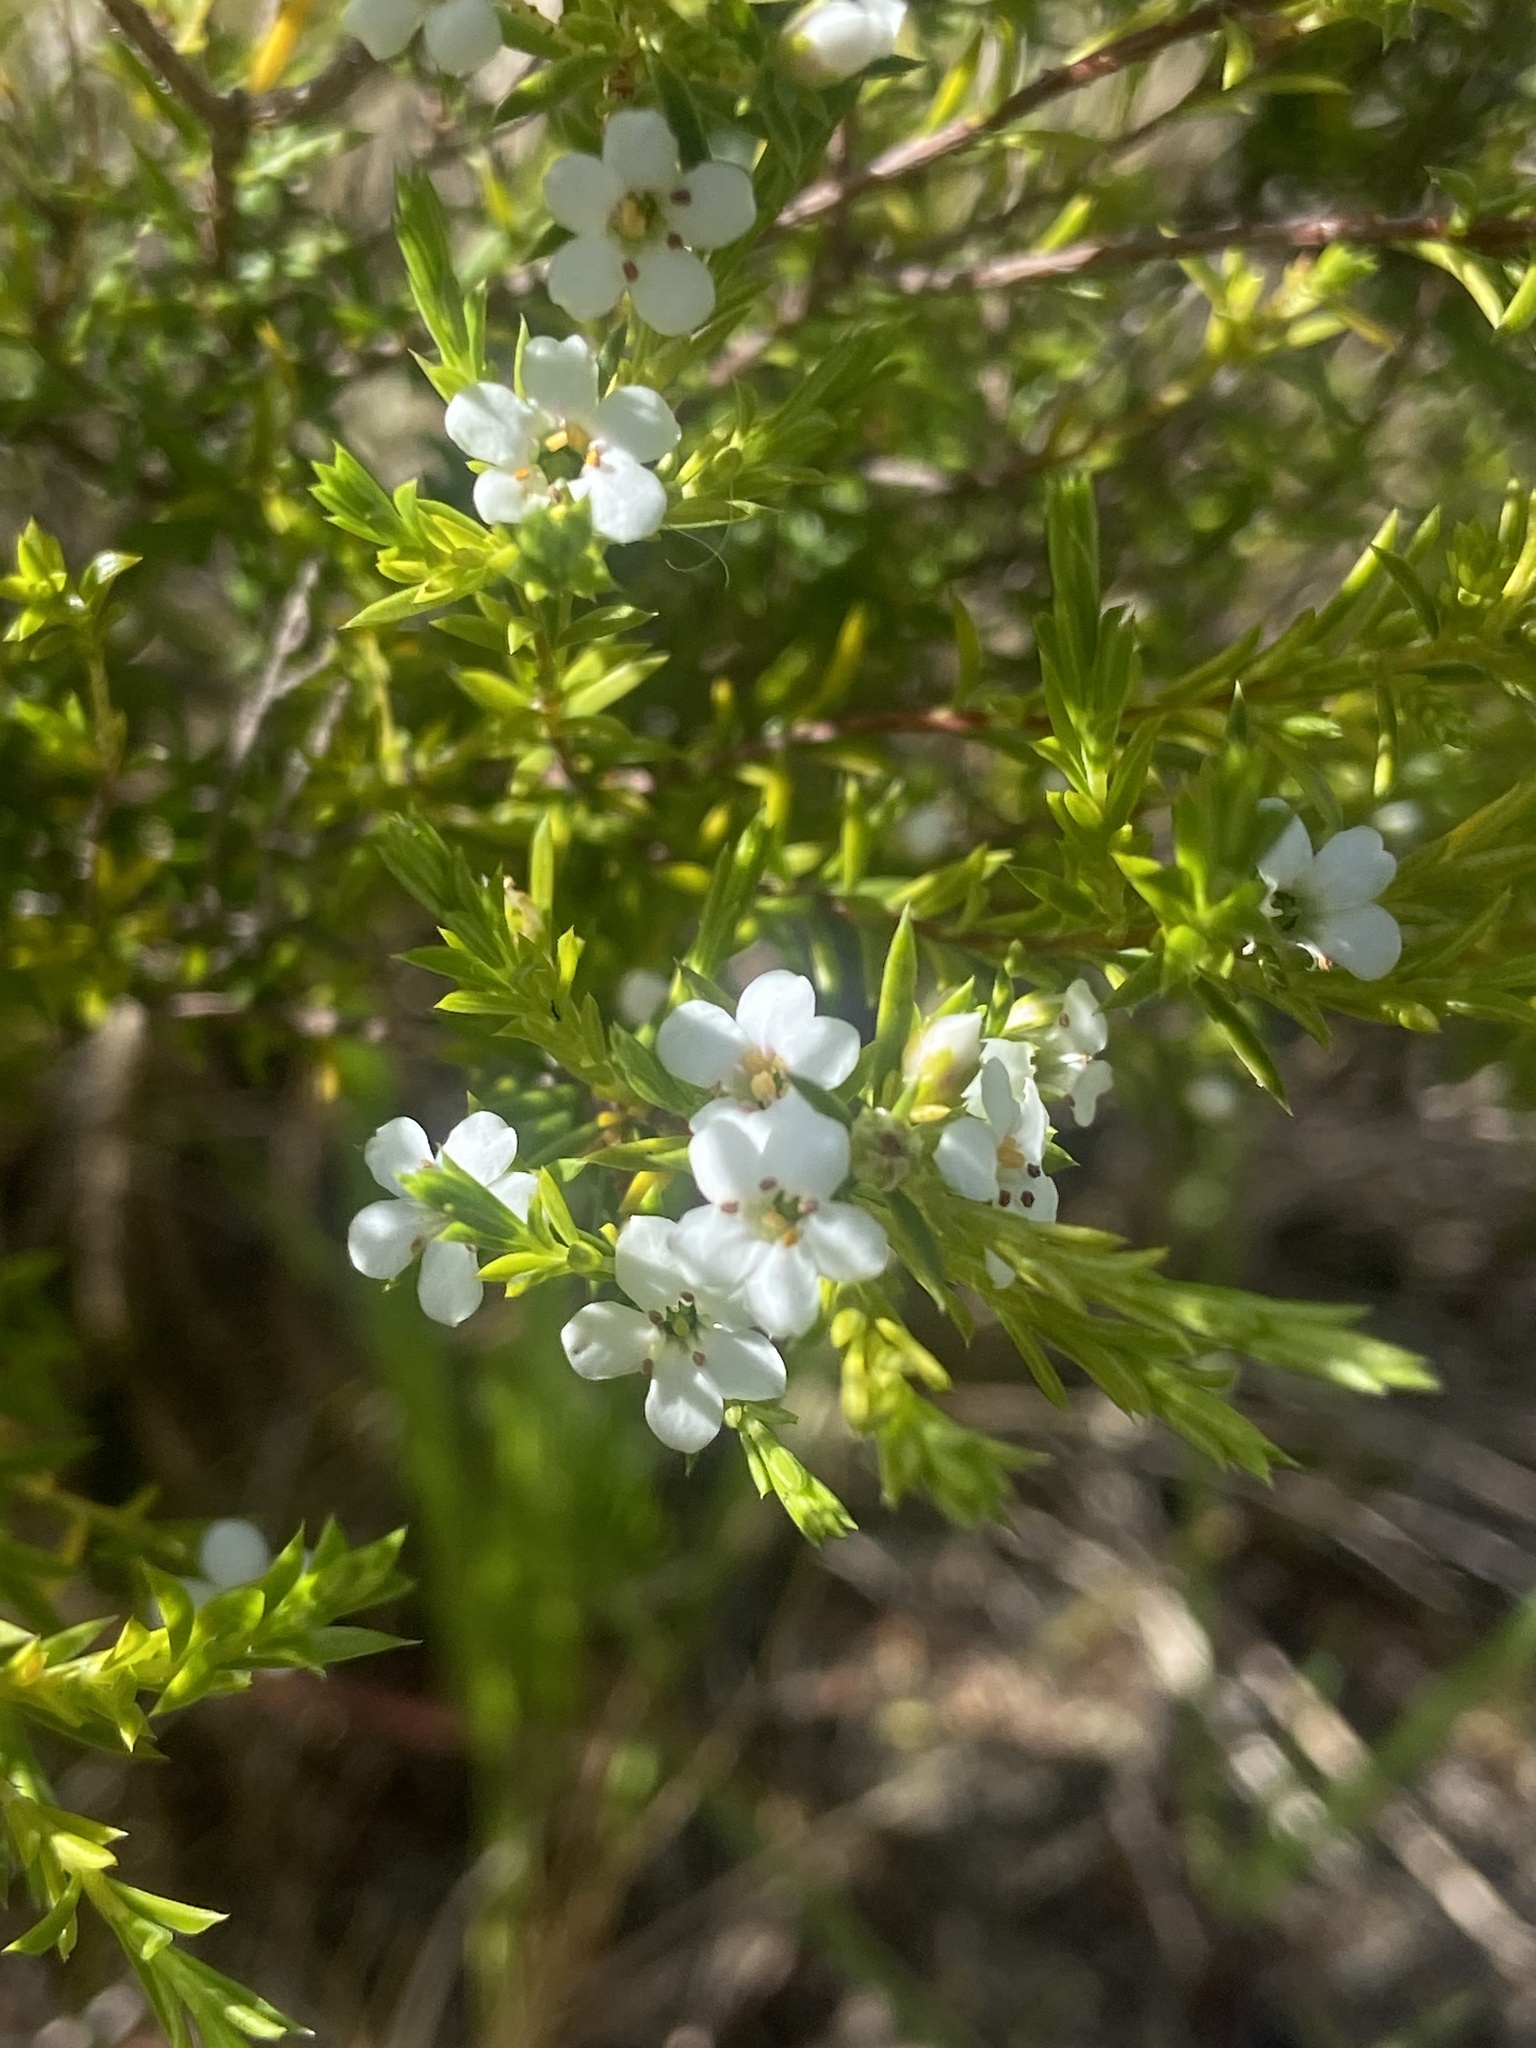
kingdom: Plantae
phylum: Tracheophyta
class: Magnoliopsida
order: Sapindales
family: Rutaceae
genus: Coleonema
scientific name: Coleonema album
